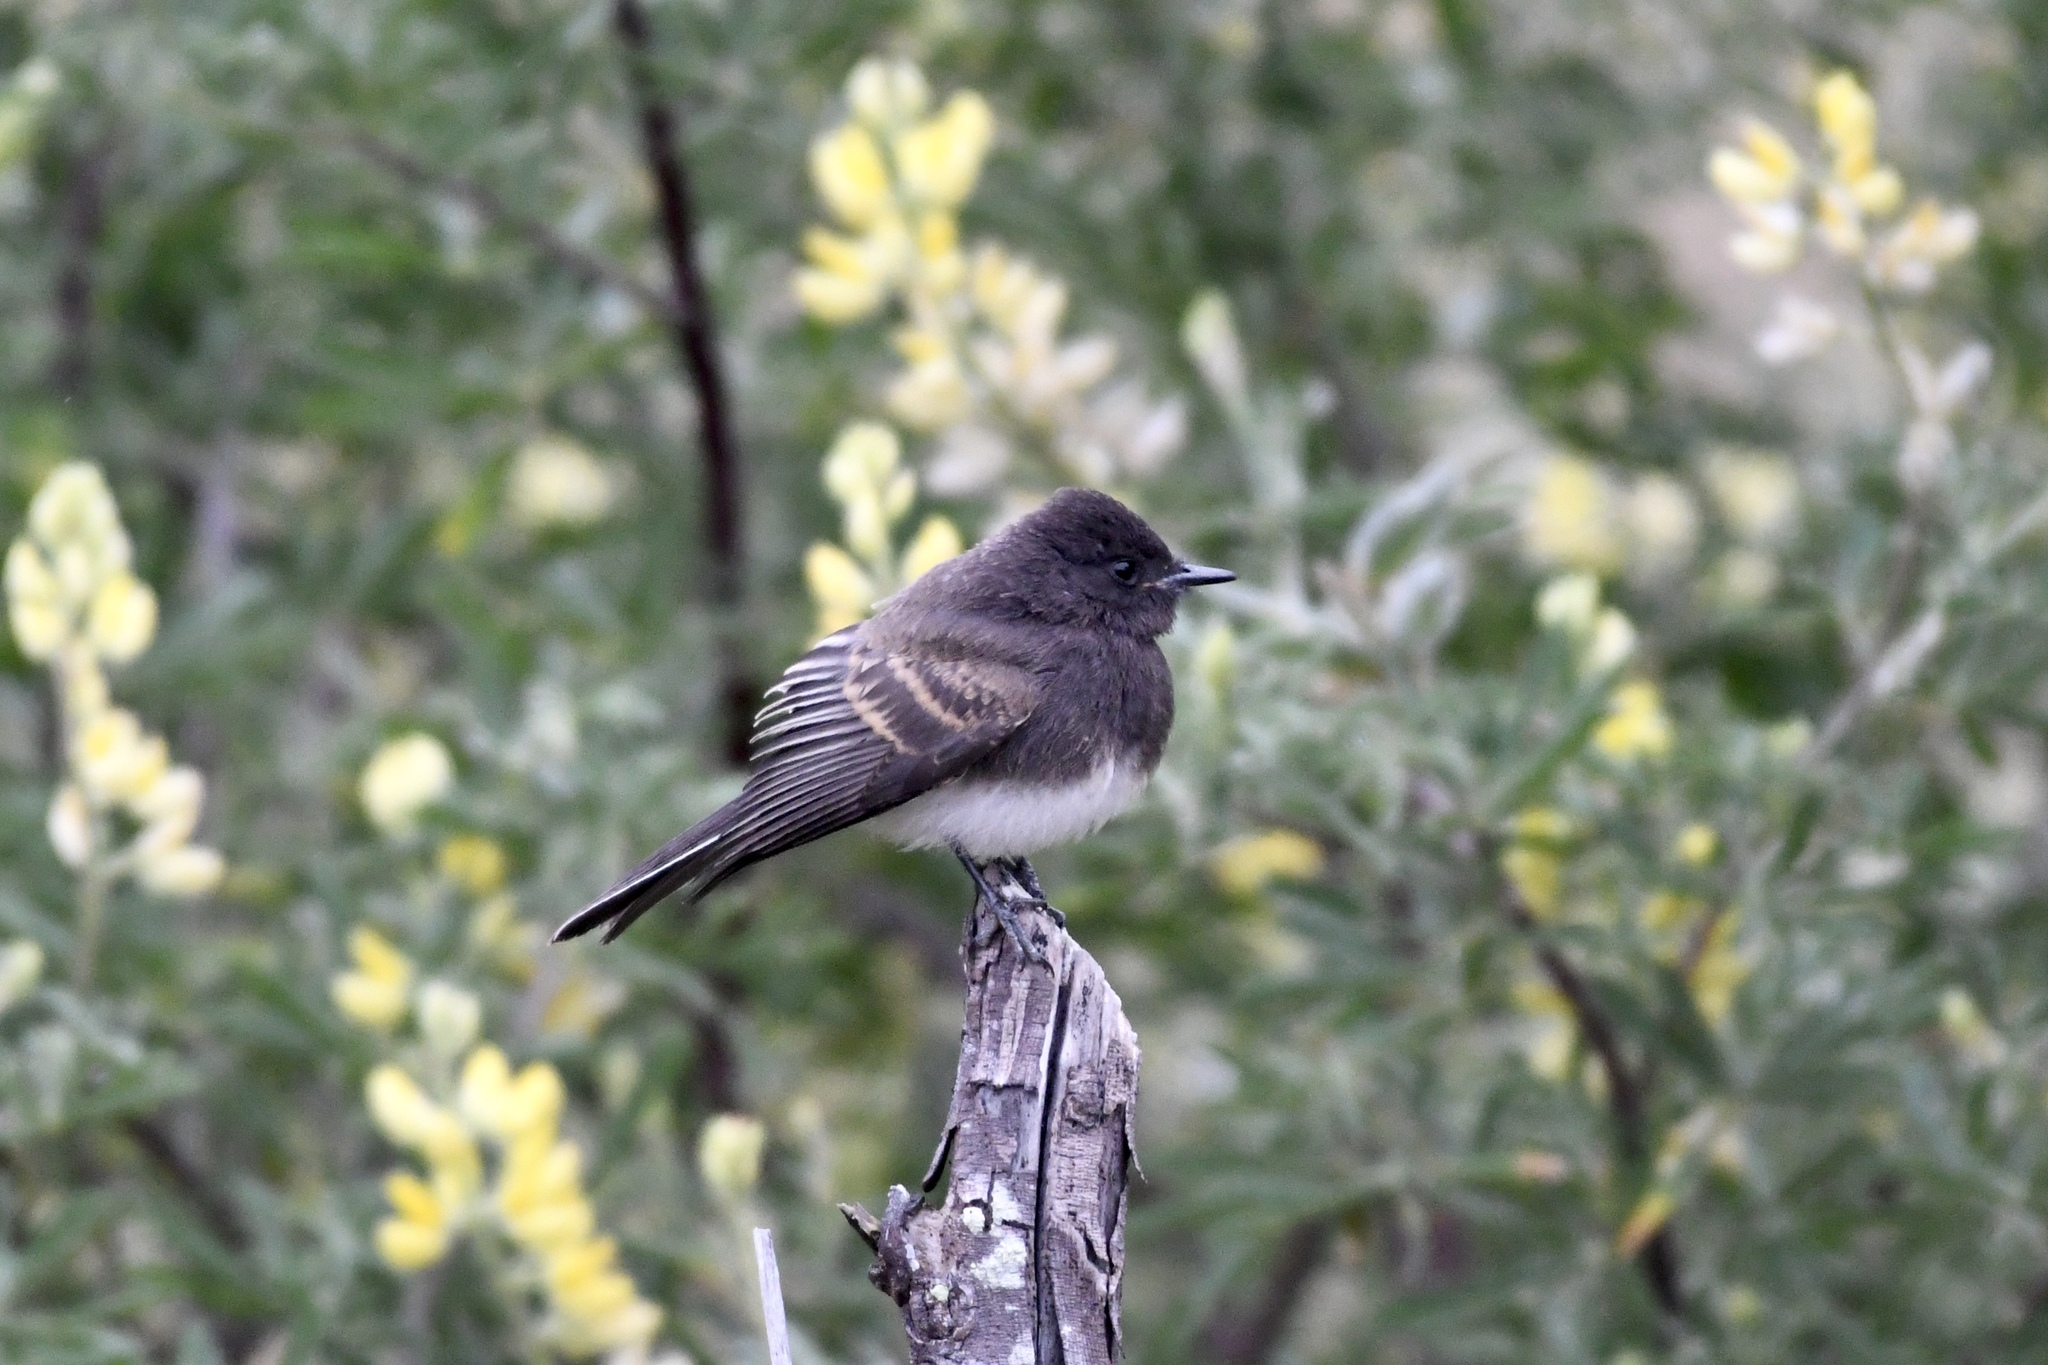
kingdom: Animalia
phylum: Chordata
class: Aves
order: Passeriformes
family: Tyrannidae
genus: Sayornis
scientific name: Sayornis nigricans
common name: Black phoebe
